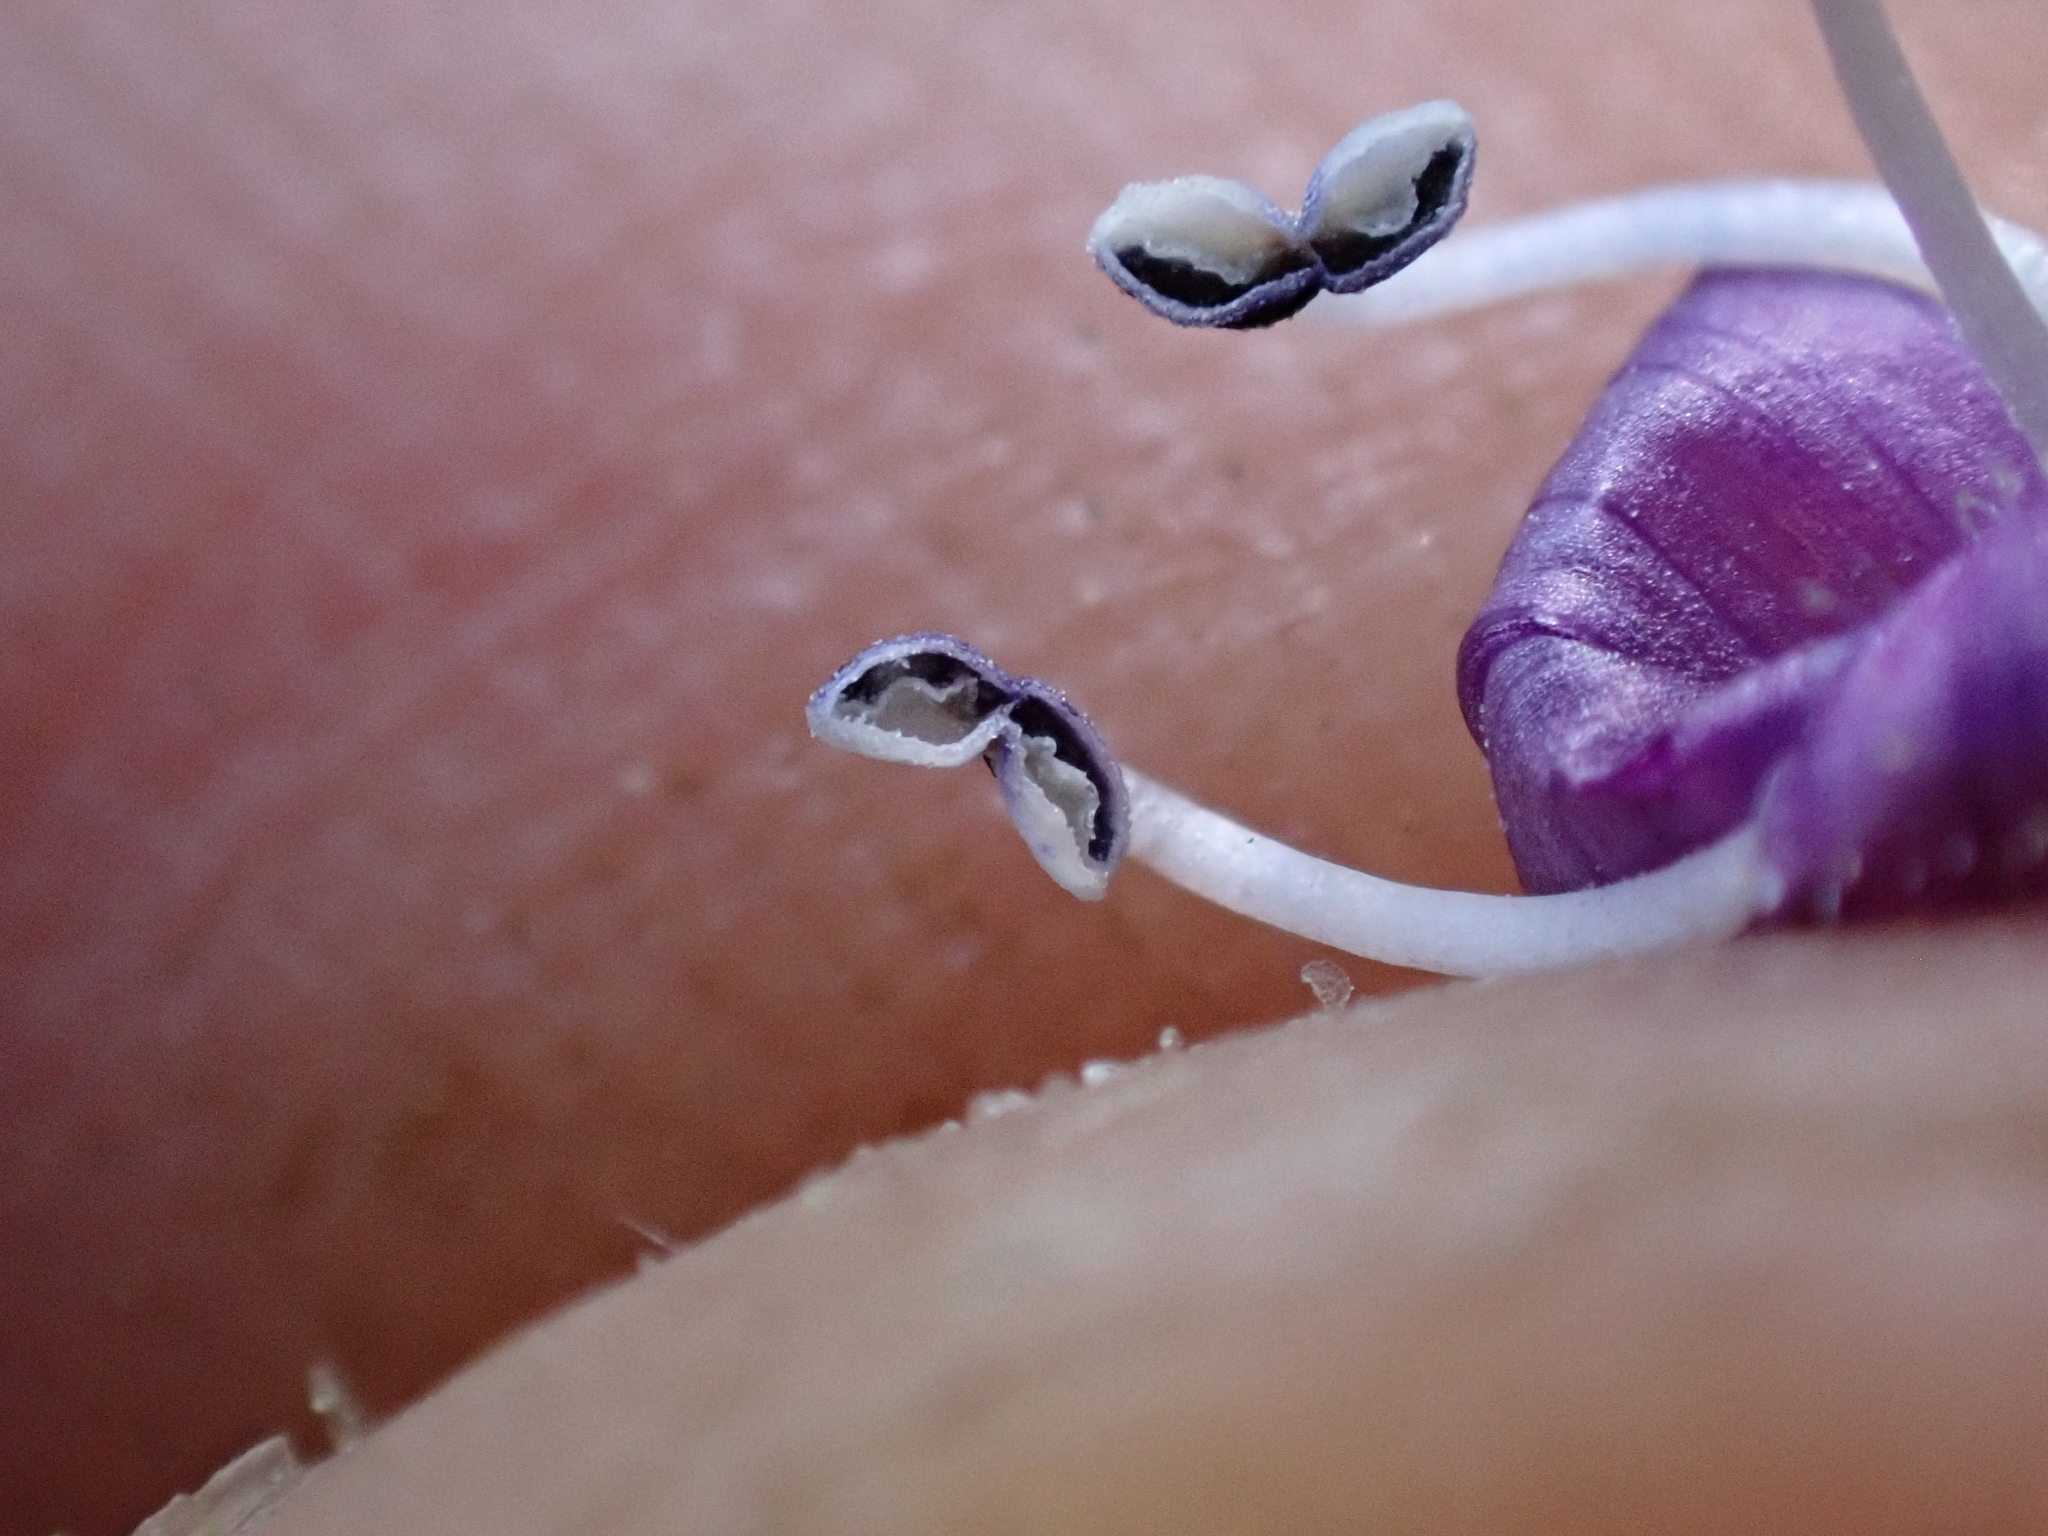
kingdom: Plantae
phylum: Tracheophyta
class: Magnoliopsida
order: Lamiales
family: Plantaginaceae
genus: Penstemon
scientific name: Penstemon humilis
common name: Low penstemon
